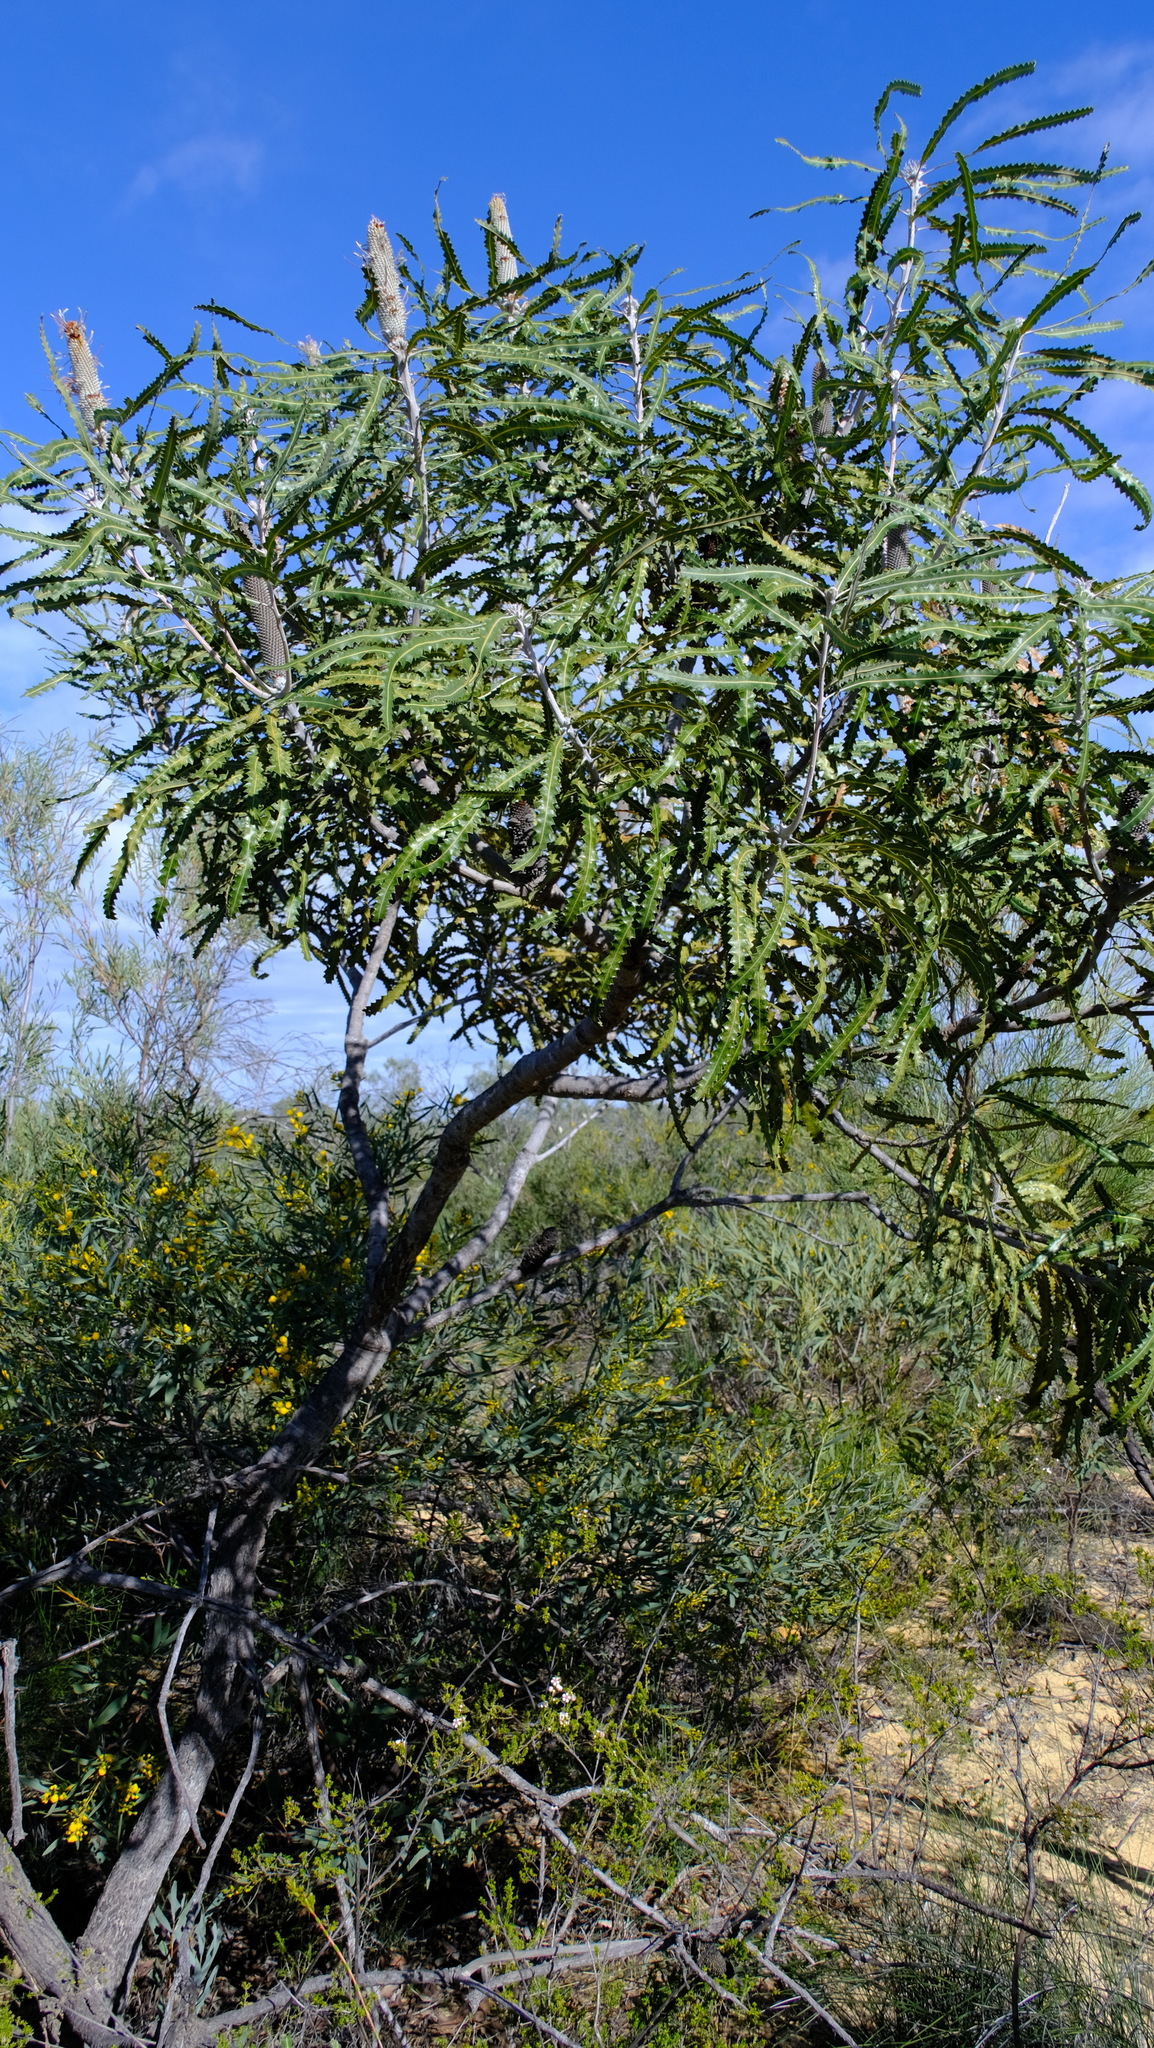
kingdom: Plantae
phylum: Tracheophyta
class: Magnoliopsida
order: Proteales
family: Proteaceae
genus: Banksia
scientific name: Banksia prionotes
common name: Acorn banksia
